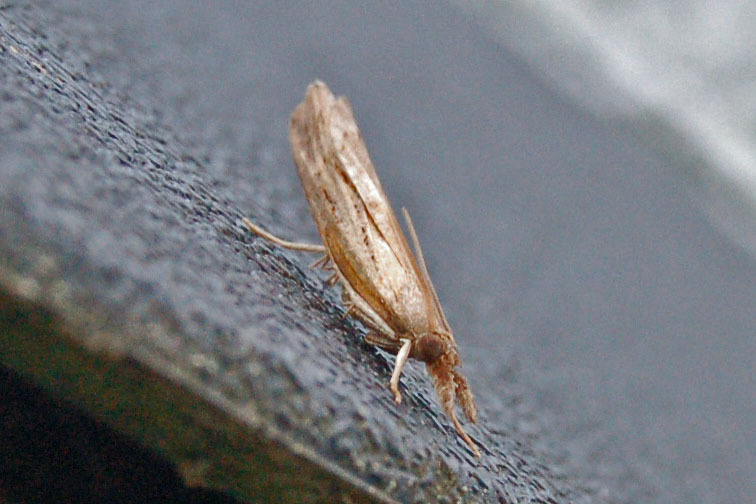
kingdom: Animalia
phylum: Arthropoda
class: Insecta
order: Lepidoptera
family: Crambidae
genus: Fissicrambus
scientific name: Fissicrambus mutabilis
